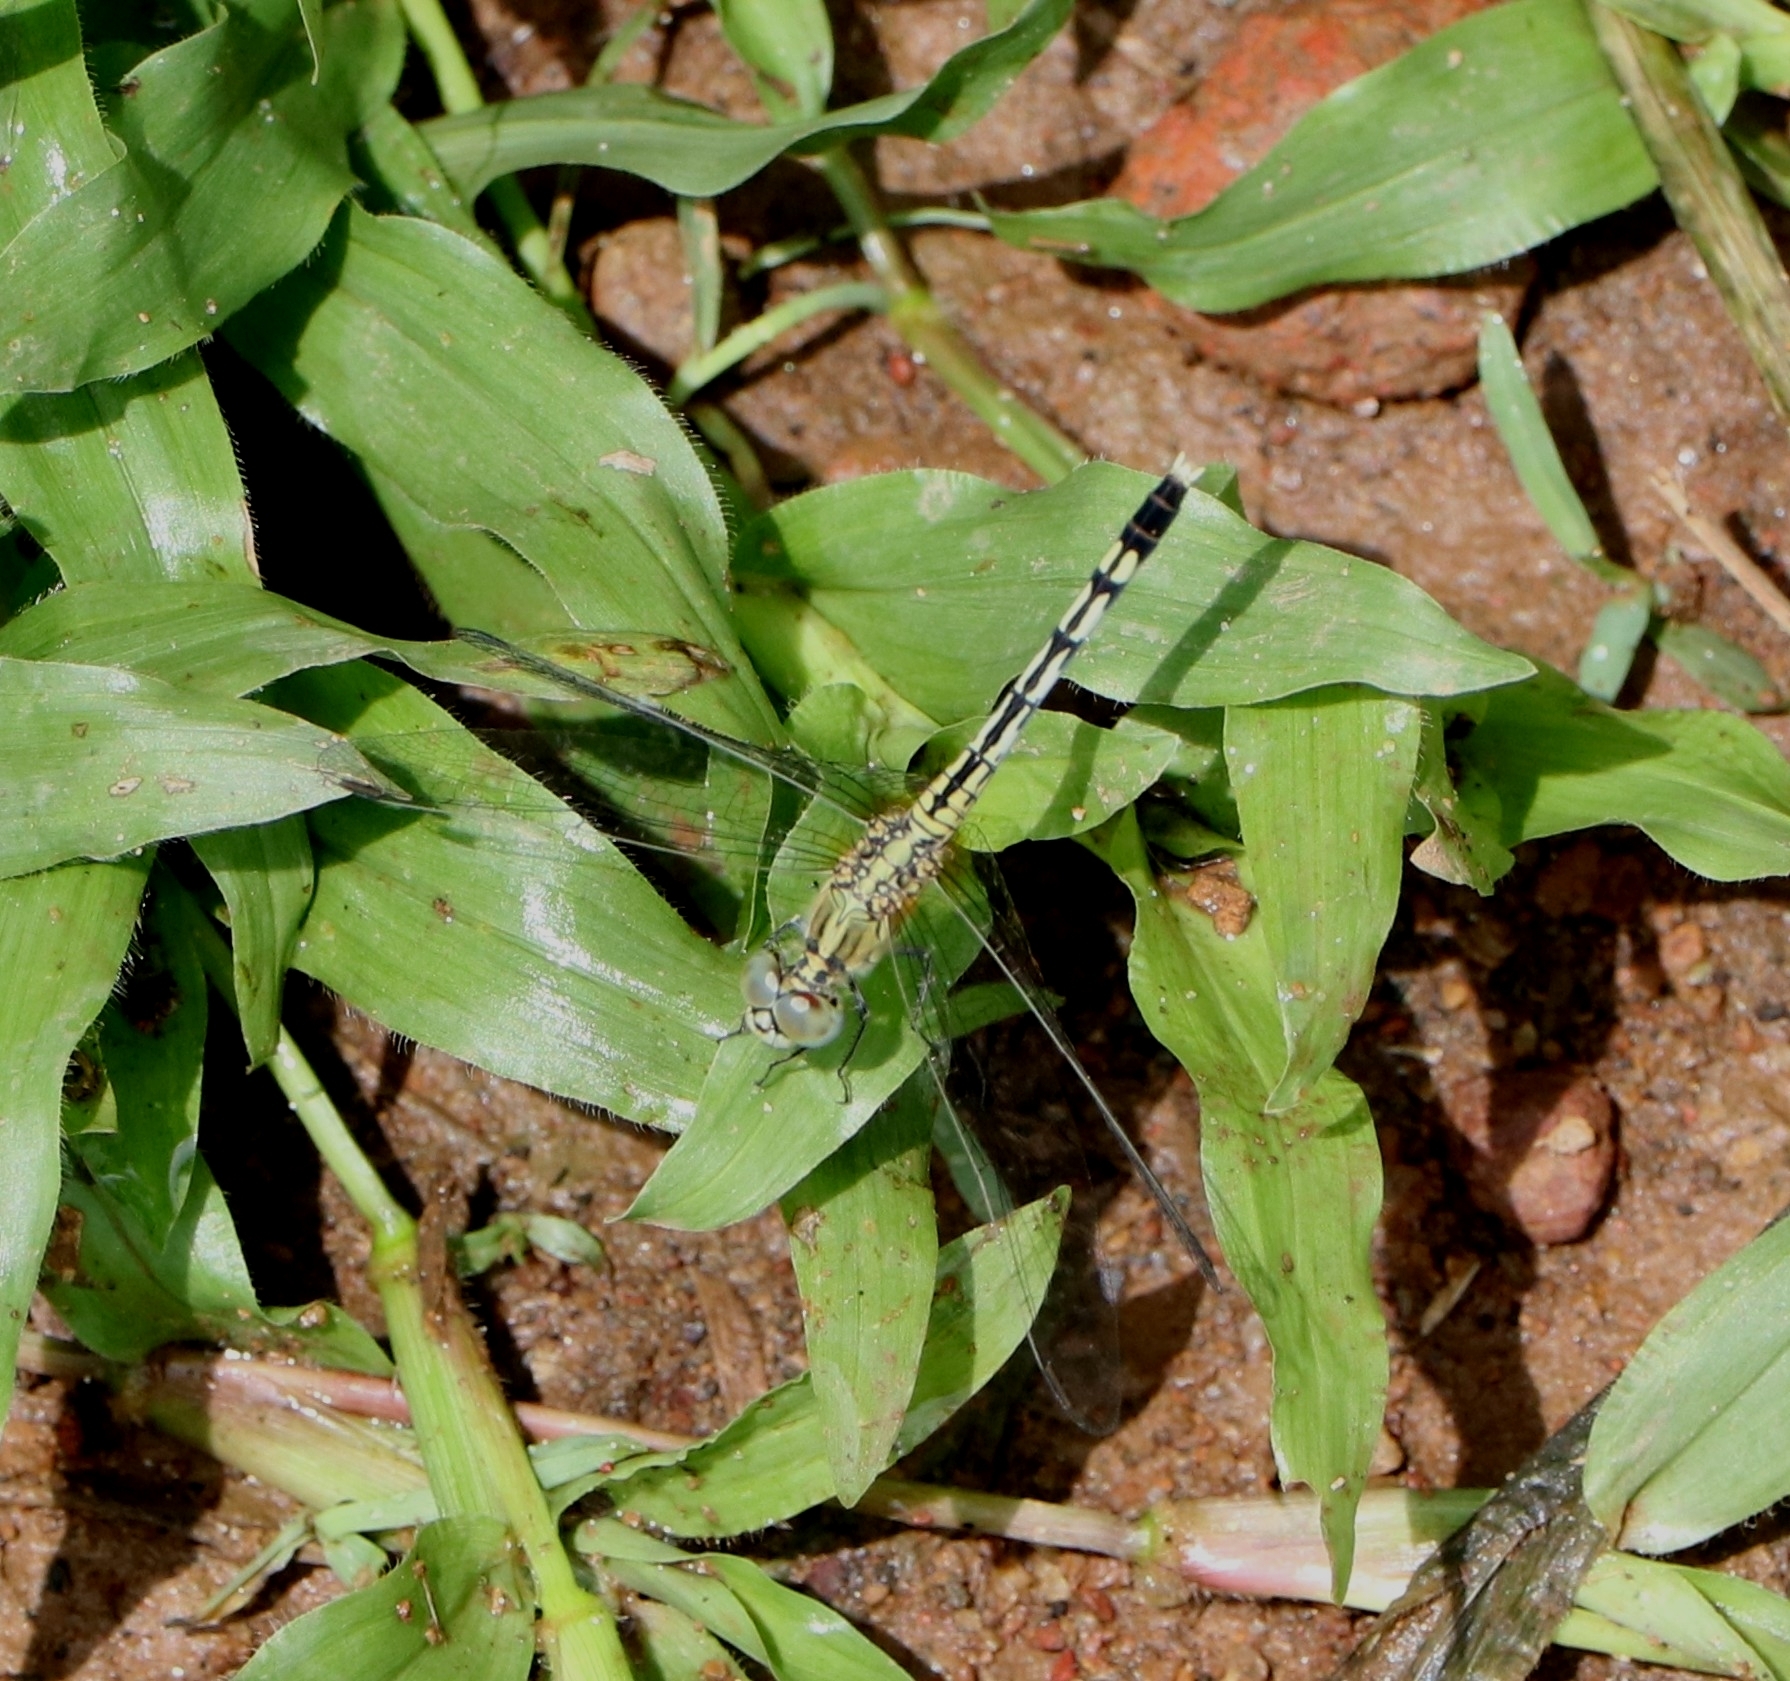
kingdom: Animalia
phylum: Arthropoda
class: Insecta
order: Odonata
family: Libellulidae
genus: Diplacodes
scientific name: Diplacodes trivialis
